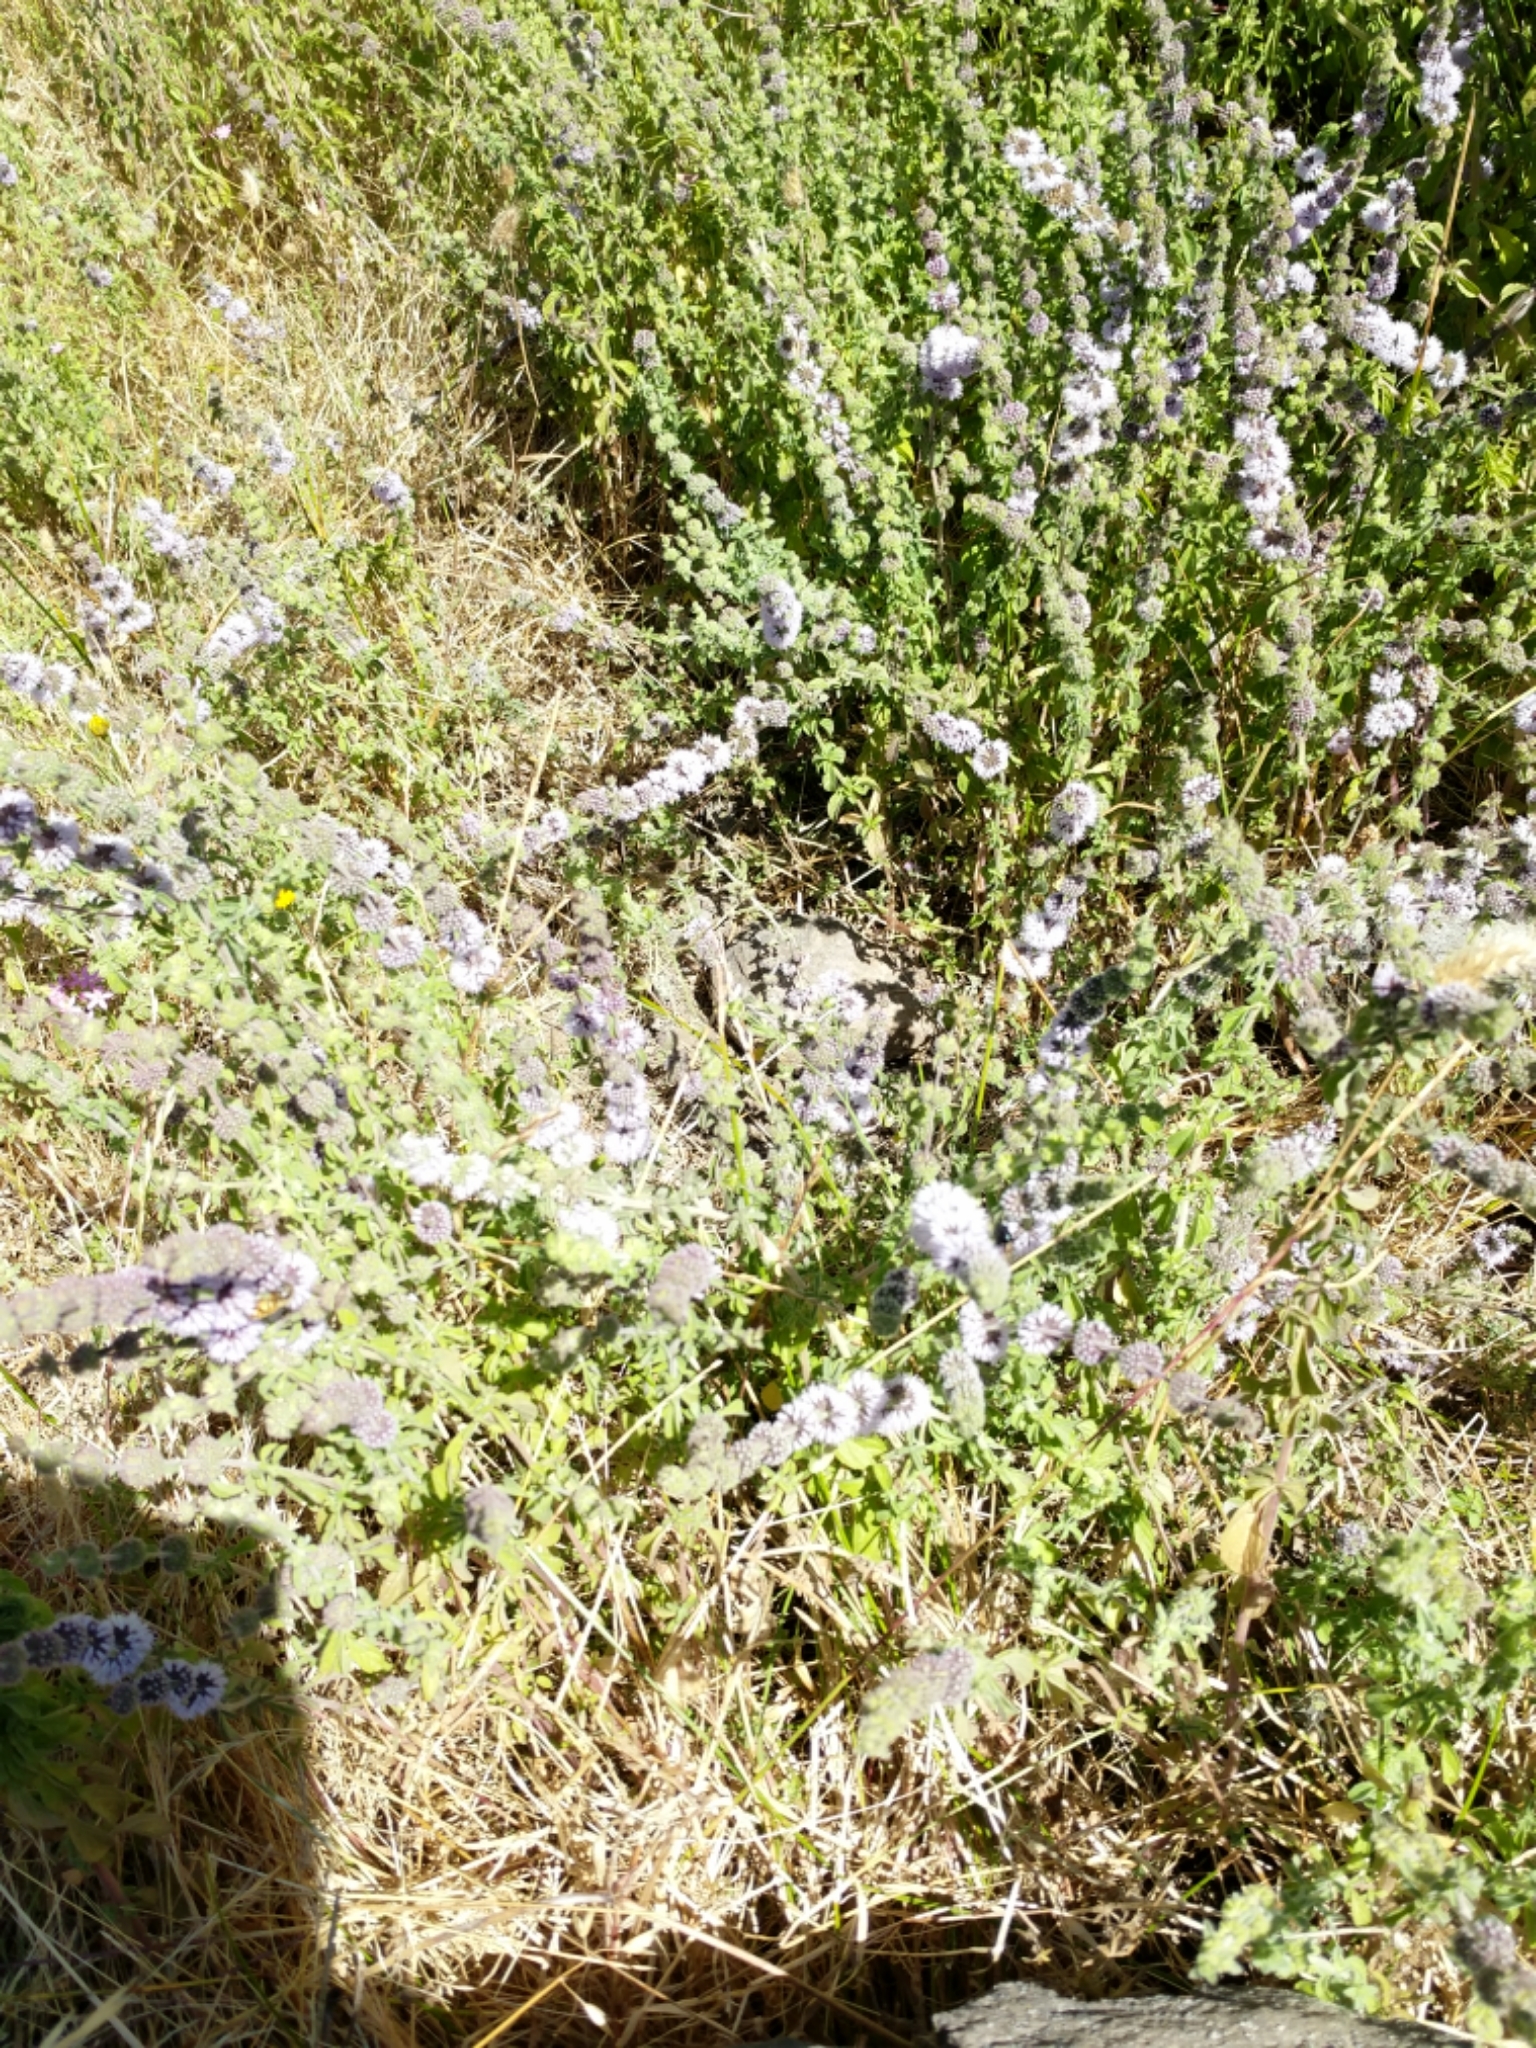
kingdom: Plantae
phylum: Tracheophyta
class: Magnoliopsida
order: Lamiales
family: Lamiaceae
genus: Mentha
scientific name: Mentha pulegium
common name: Pennyroyal
